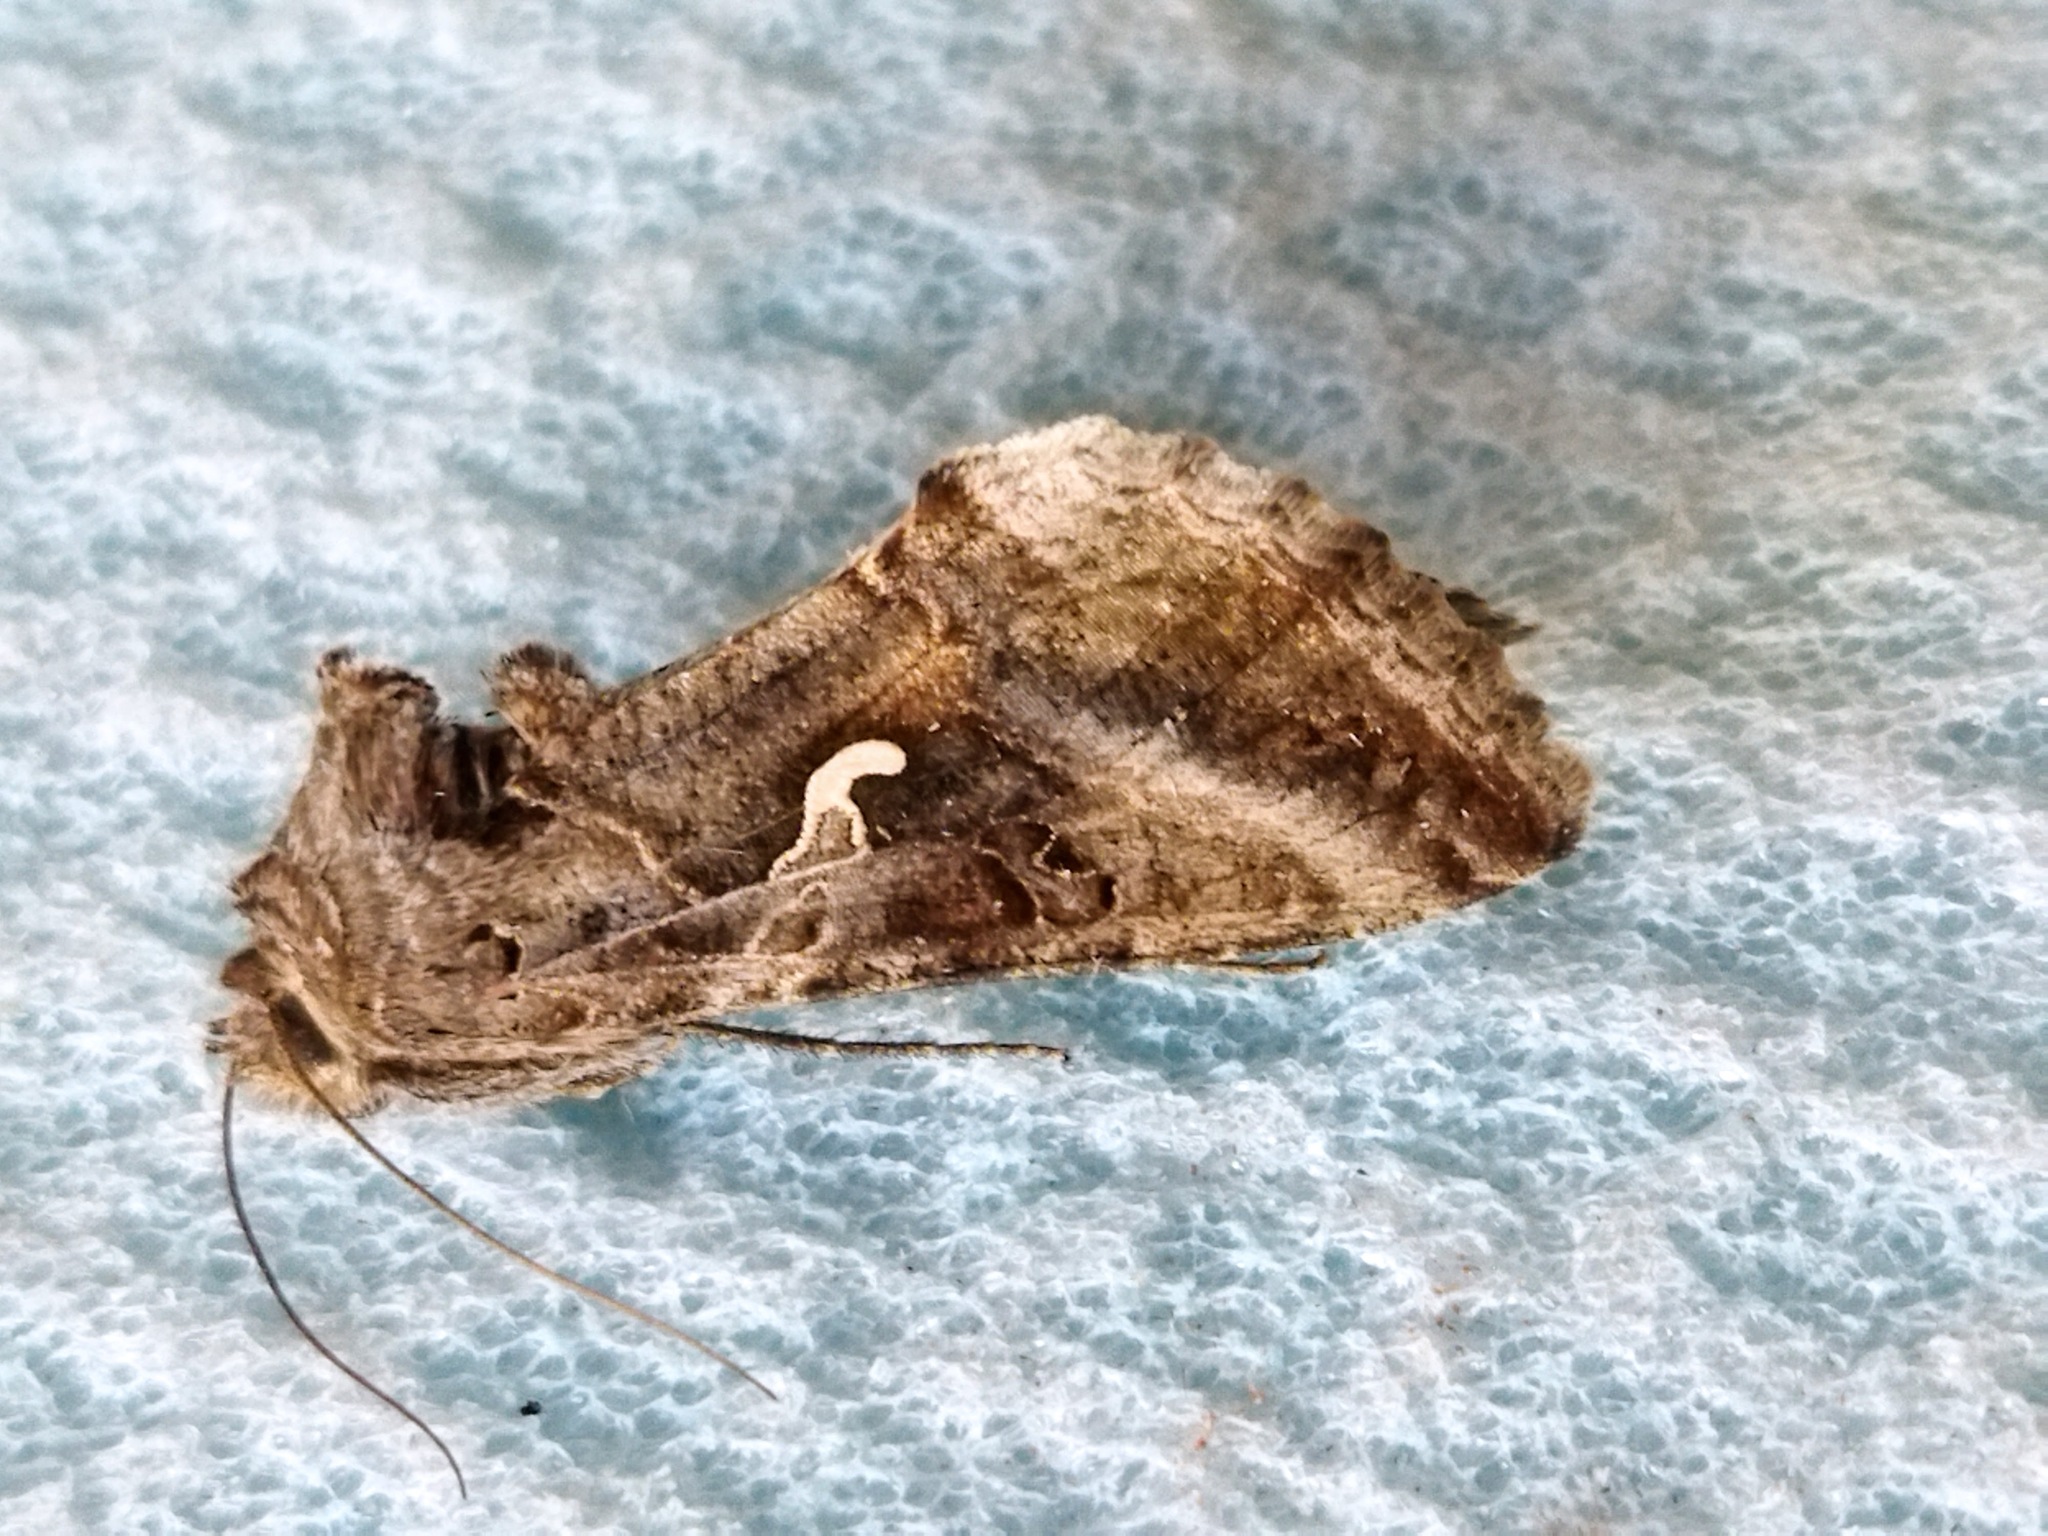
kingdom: Animalia
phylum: Arthropoda
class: Insecta
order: Lepidoptera
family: Noctuidae
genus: Autographa
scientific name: Autographa gamma
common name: Silver y
